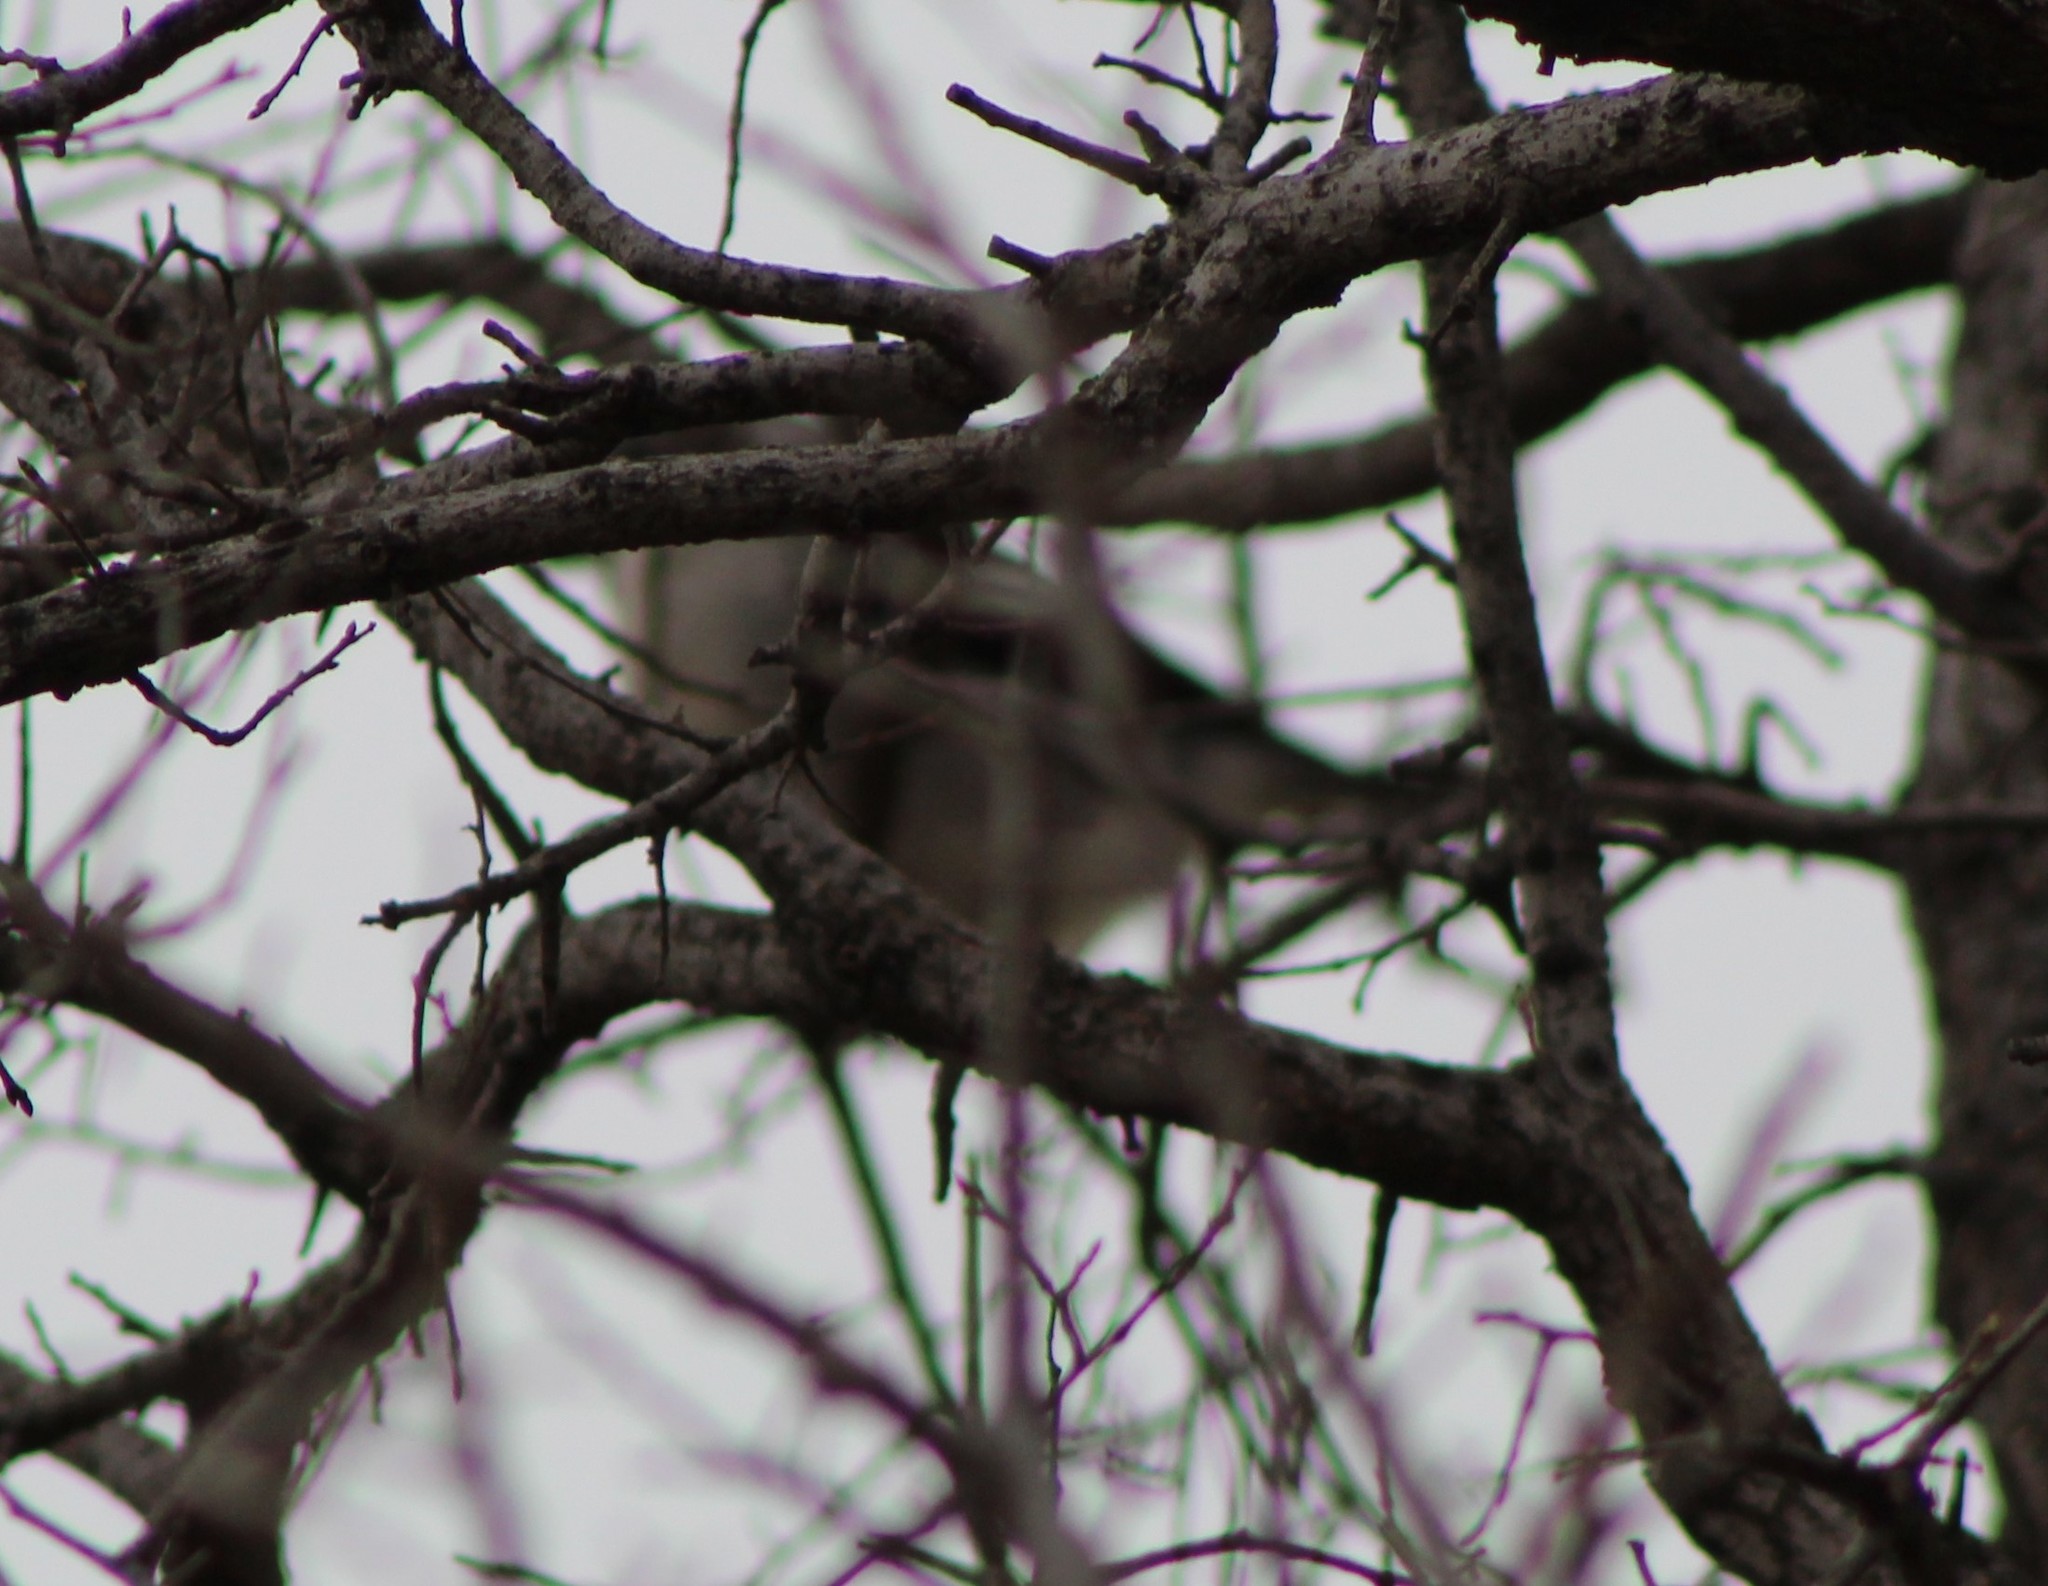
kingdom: Animalia
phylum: Chordata
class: Aves
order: Passeriformes
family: Laniidae
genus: Lanius
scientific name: Lanius ludovicianus
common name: Loggerhead shrike
